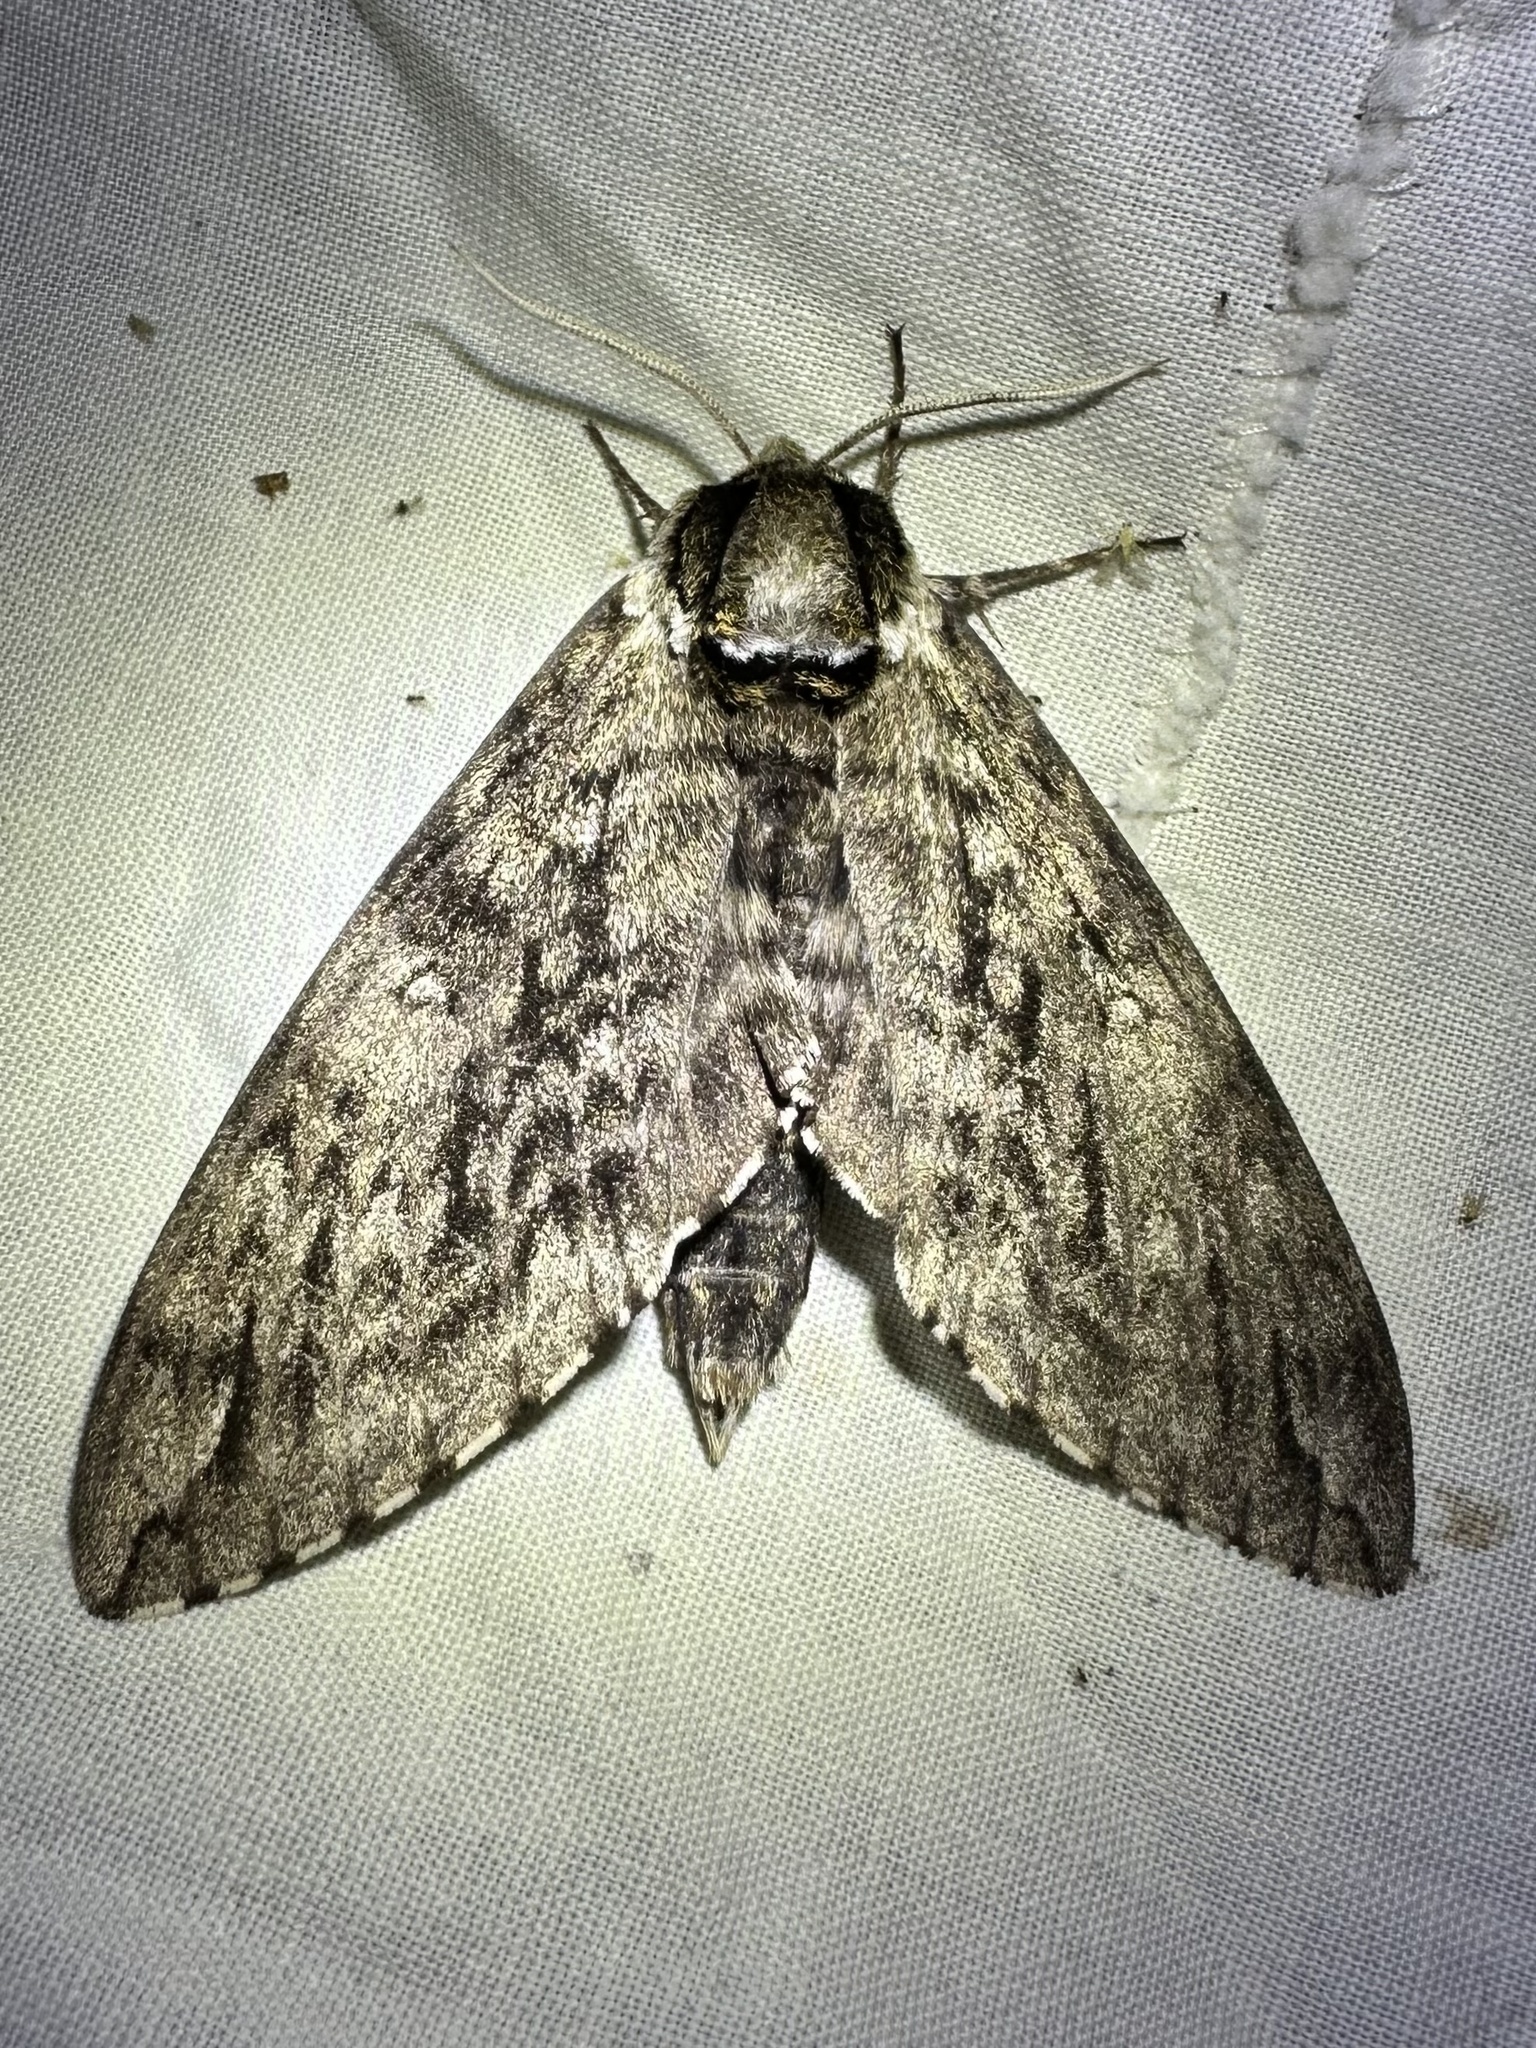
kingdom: Animalia
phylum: Arthropoda
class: Insecta
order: Lepidoptera
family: Sphingidae
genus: Ceratomia
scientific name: Ceratomia undulosa
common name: Waved sphinx
